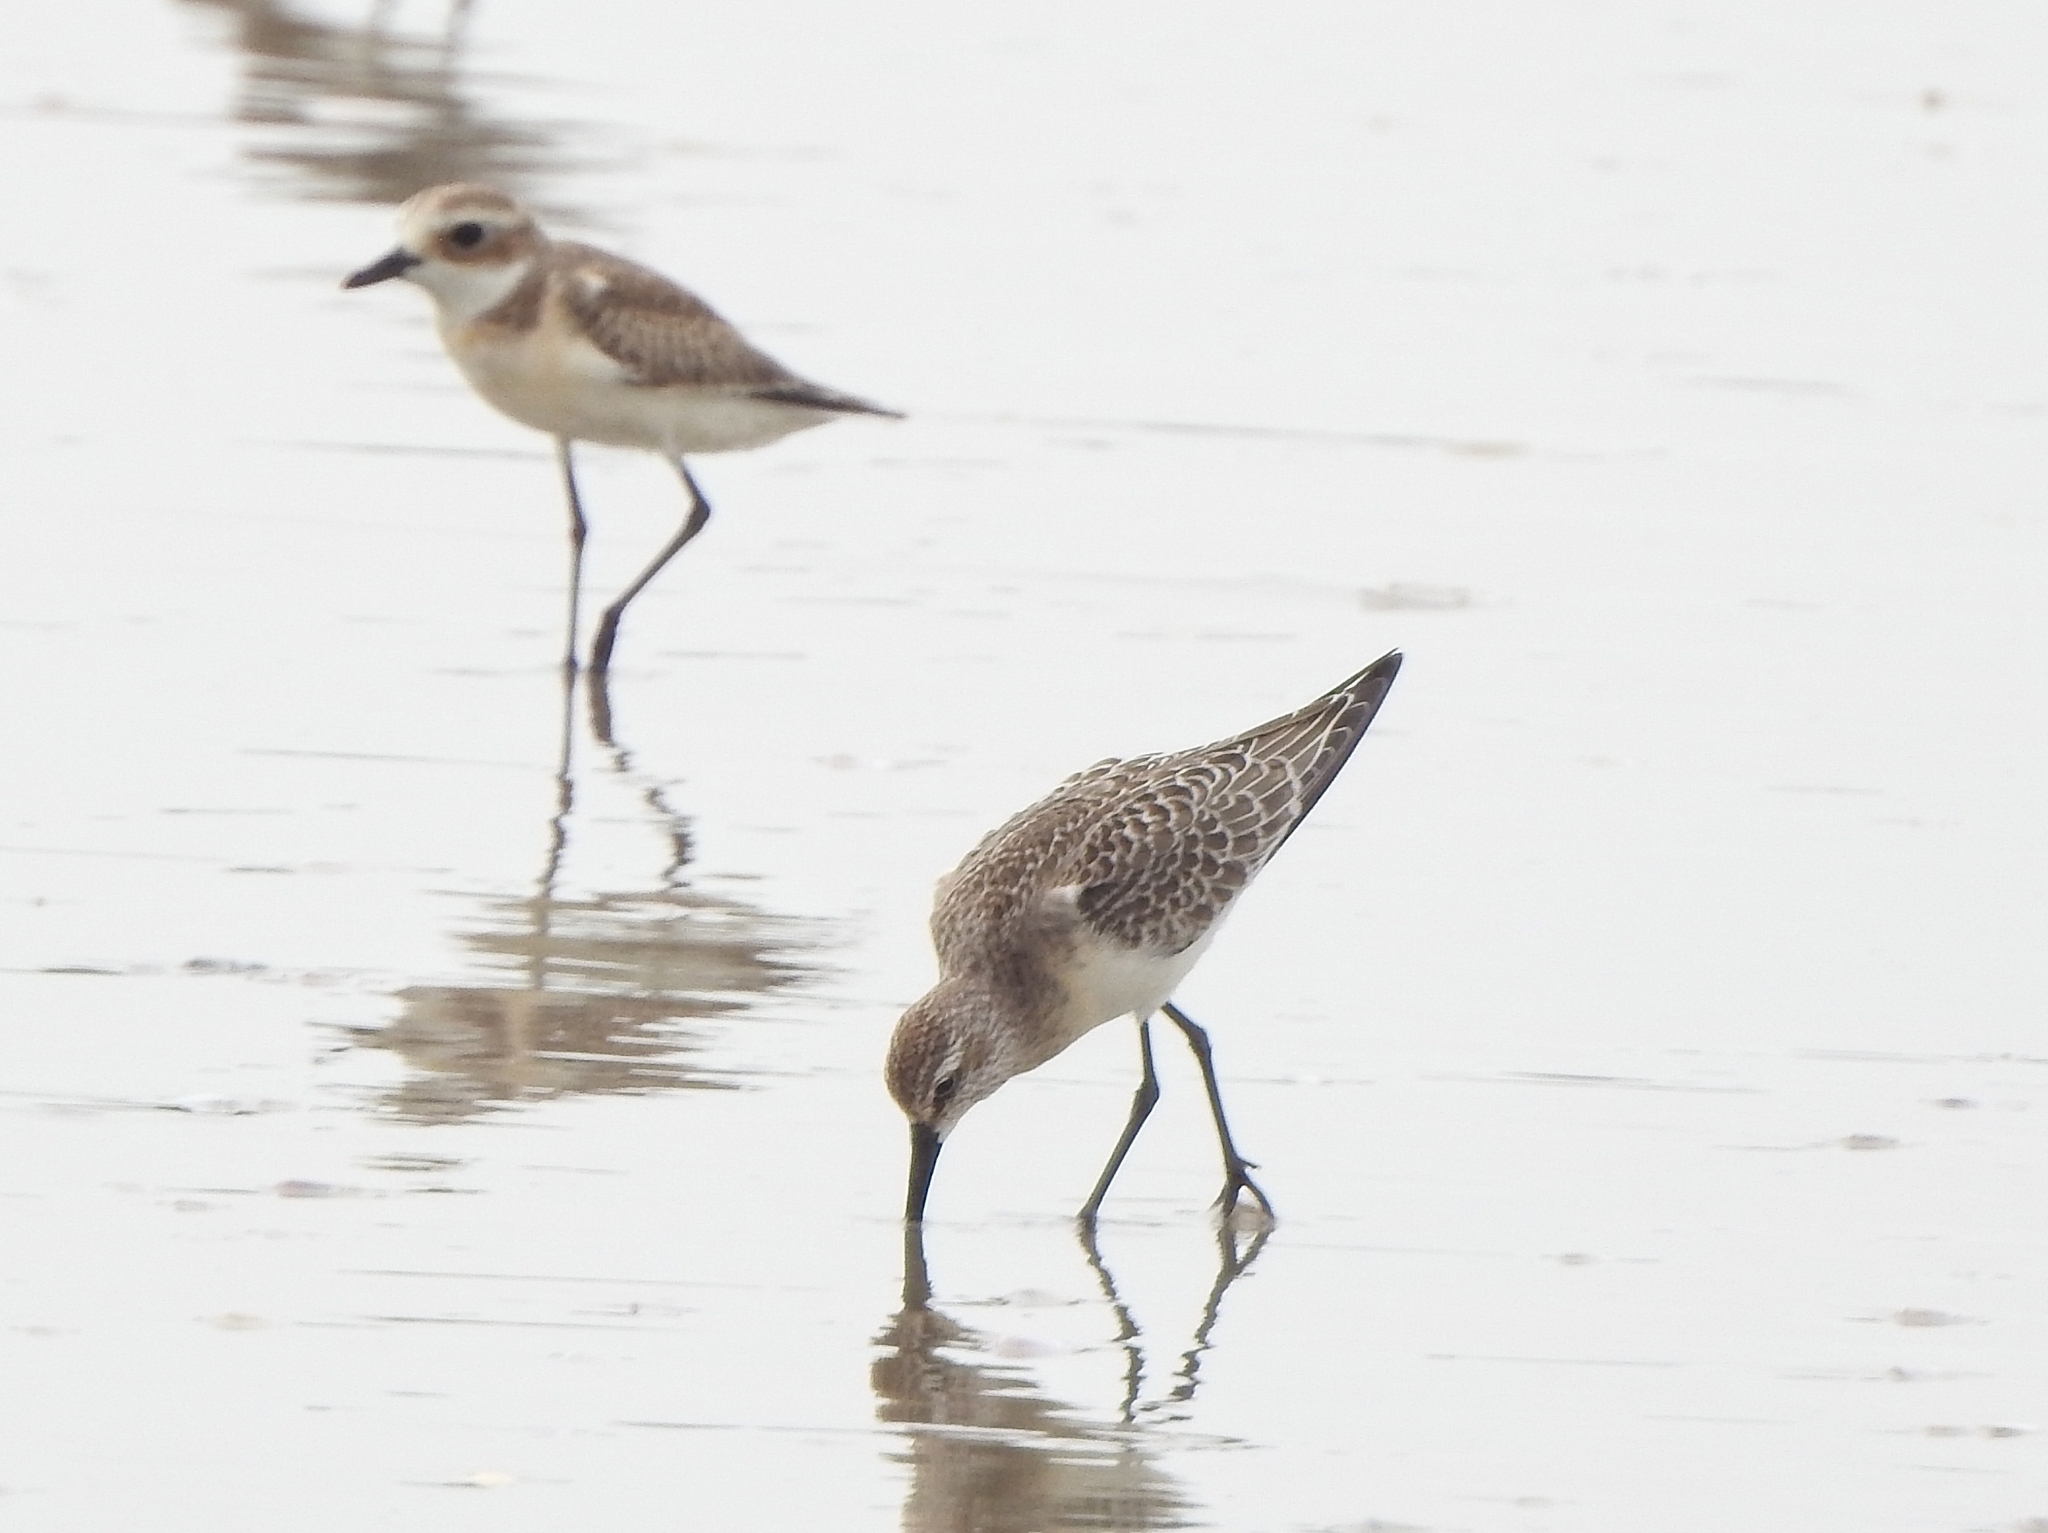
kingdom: Animalia
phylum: Chordata
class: Aves
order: Charadriiformes
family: Charadriidae
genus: Anarhynchus
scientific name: Anarhynchus
